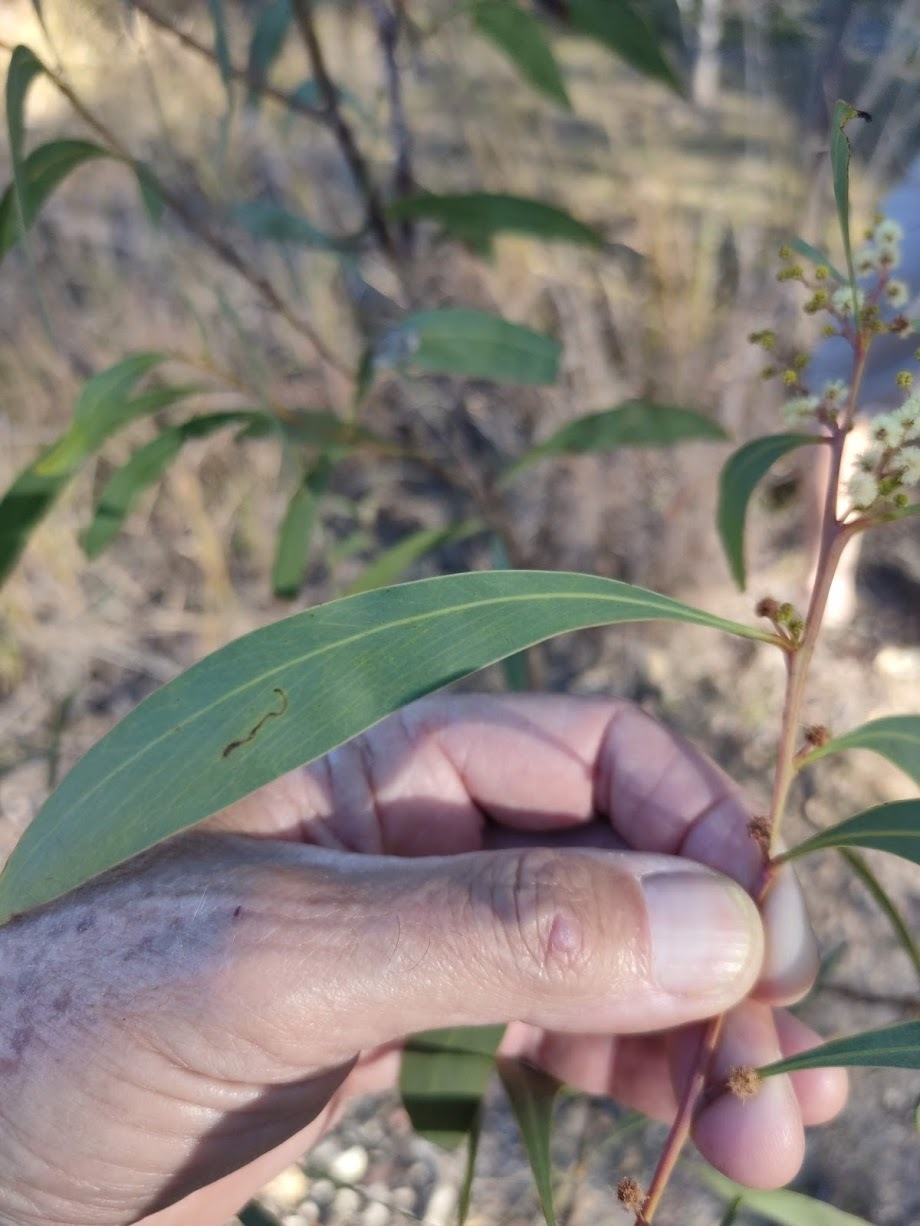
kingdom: Plantae
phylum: Tracheophyta
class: Magnoliopsida
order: Fabales
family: Fabaceae
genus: Acacia
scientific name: Acacia falcata
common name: Burra acacia
